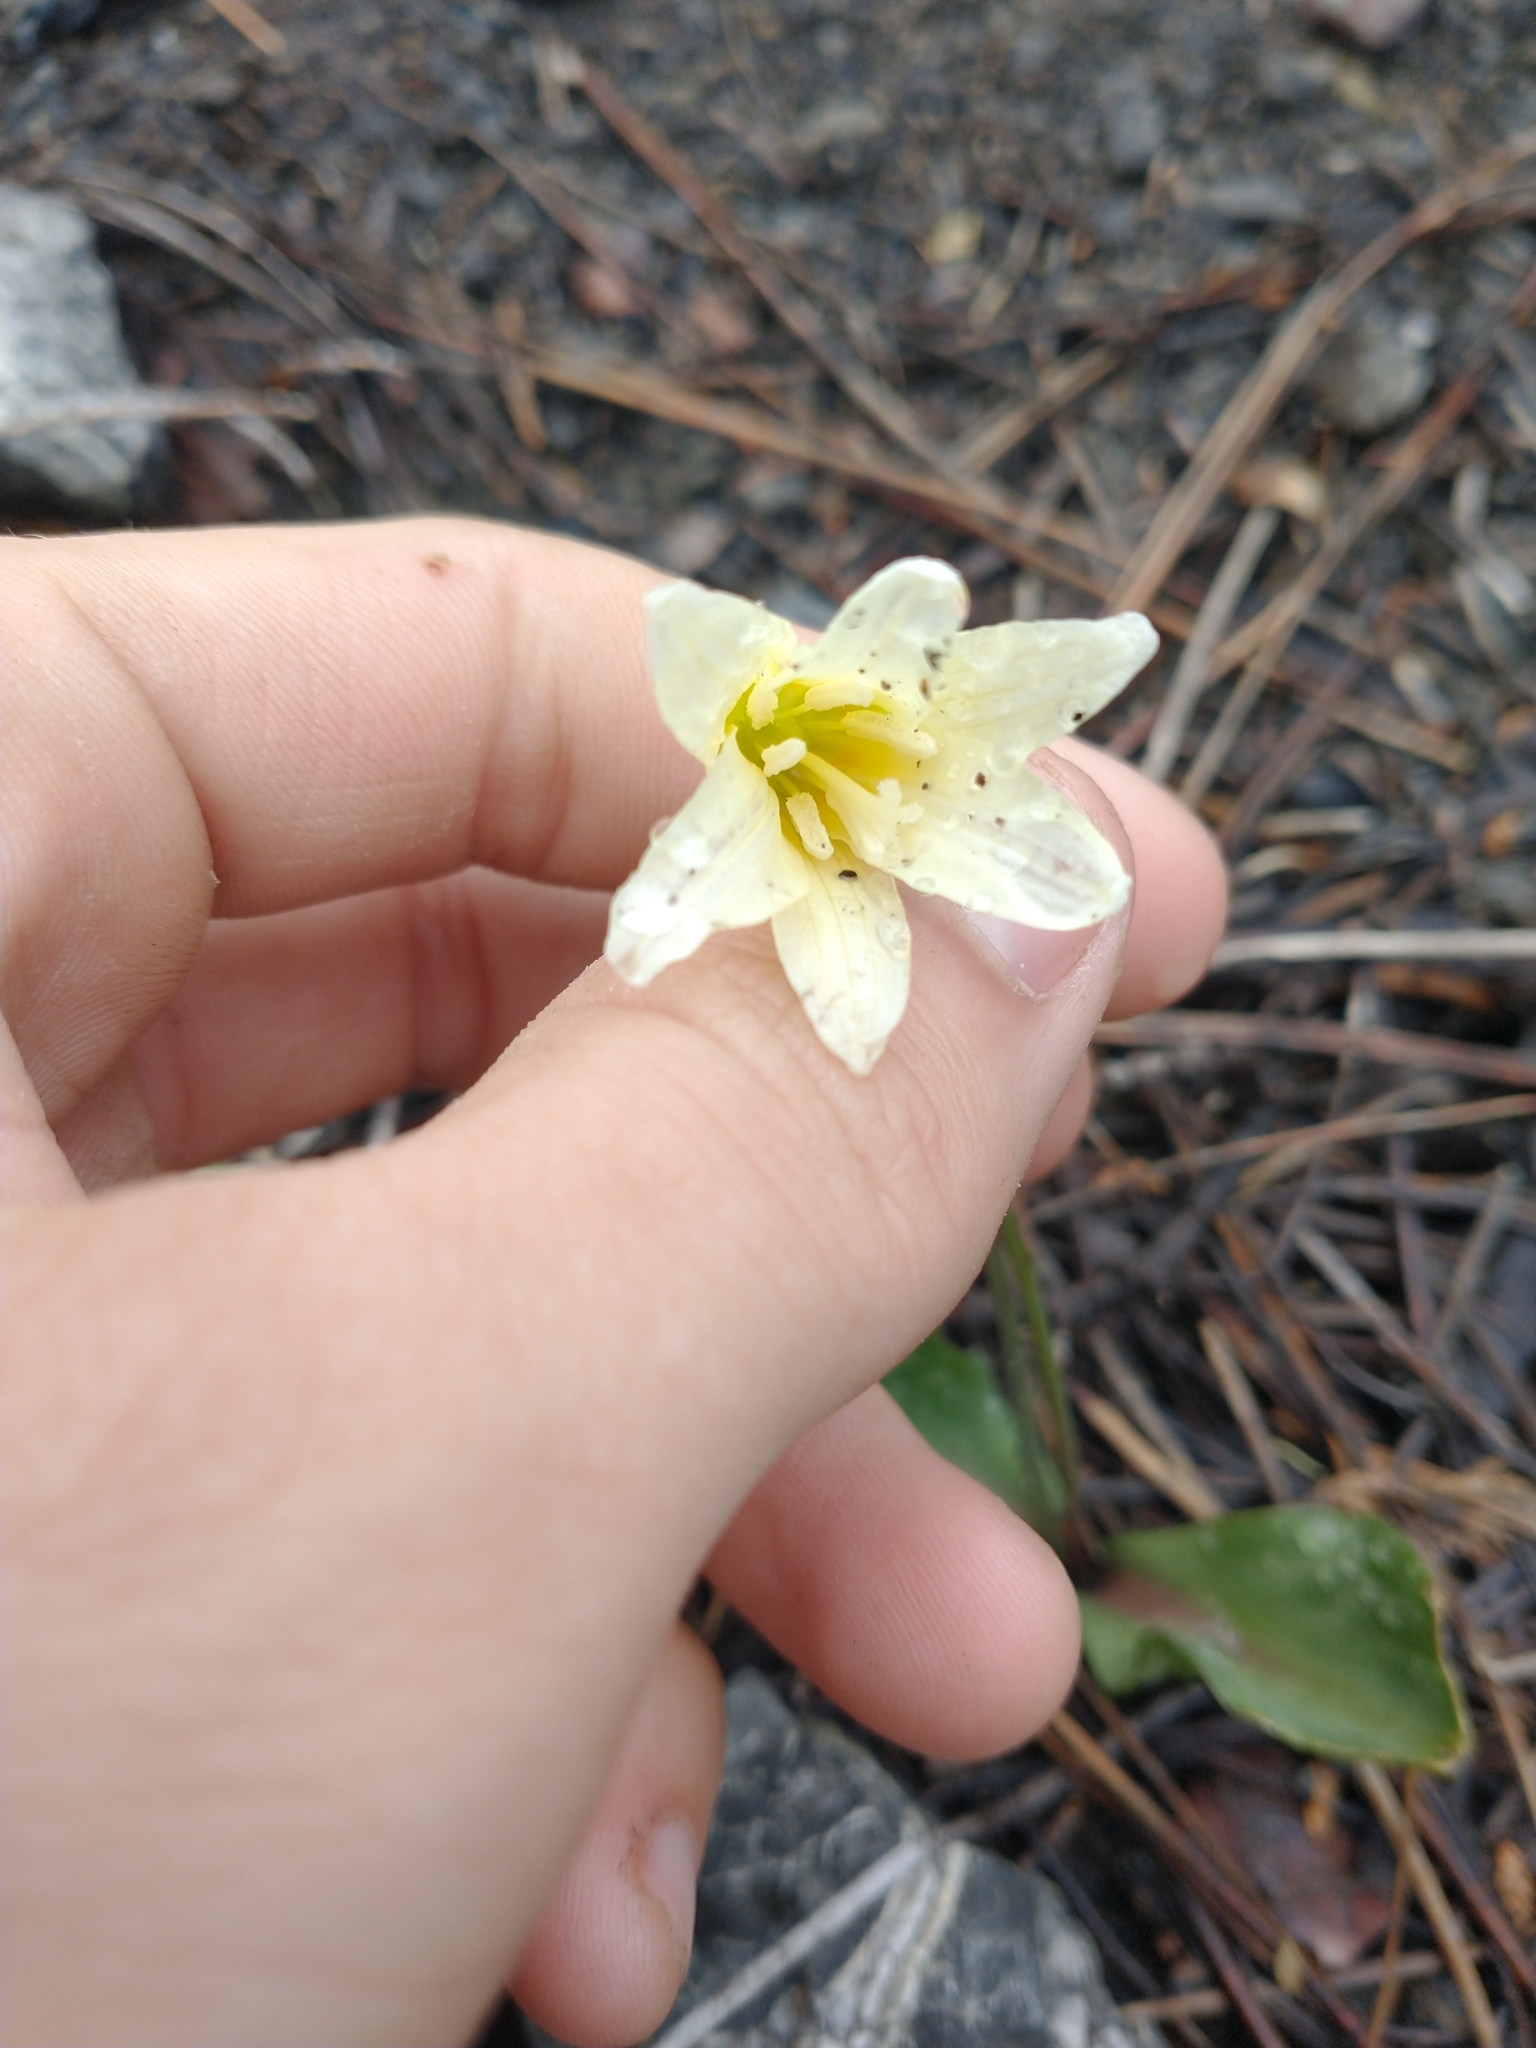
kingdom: Plantae
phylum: Tracheophyta
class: Liliopsida
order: Liliales
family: Liliaceae
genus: Erythronium
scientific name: Erythronium californicum
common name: Fawn-lily
